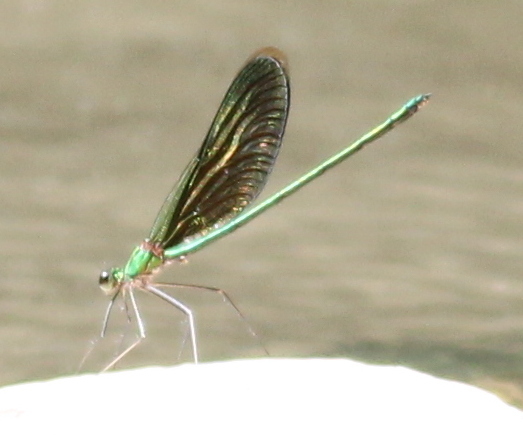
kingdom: Animalia
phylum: Arthropoda
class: Insecta
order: Odonata
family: Calopterygidae
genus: Neurobasis
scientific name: Neurobasis chinensis
